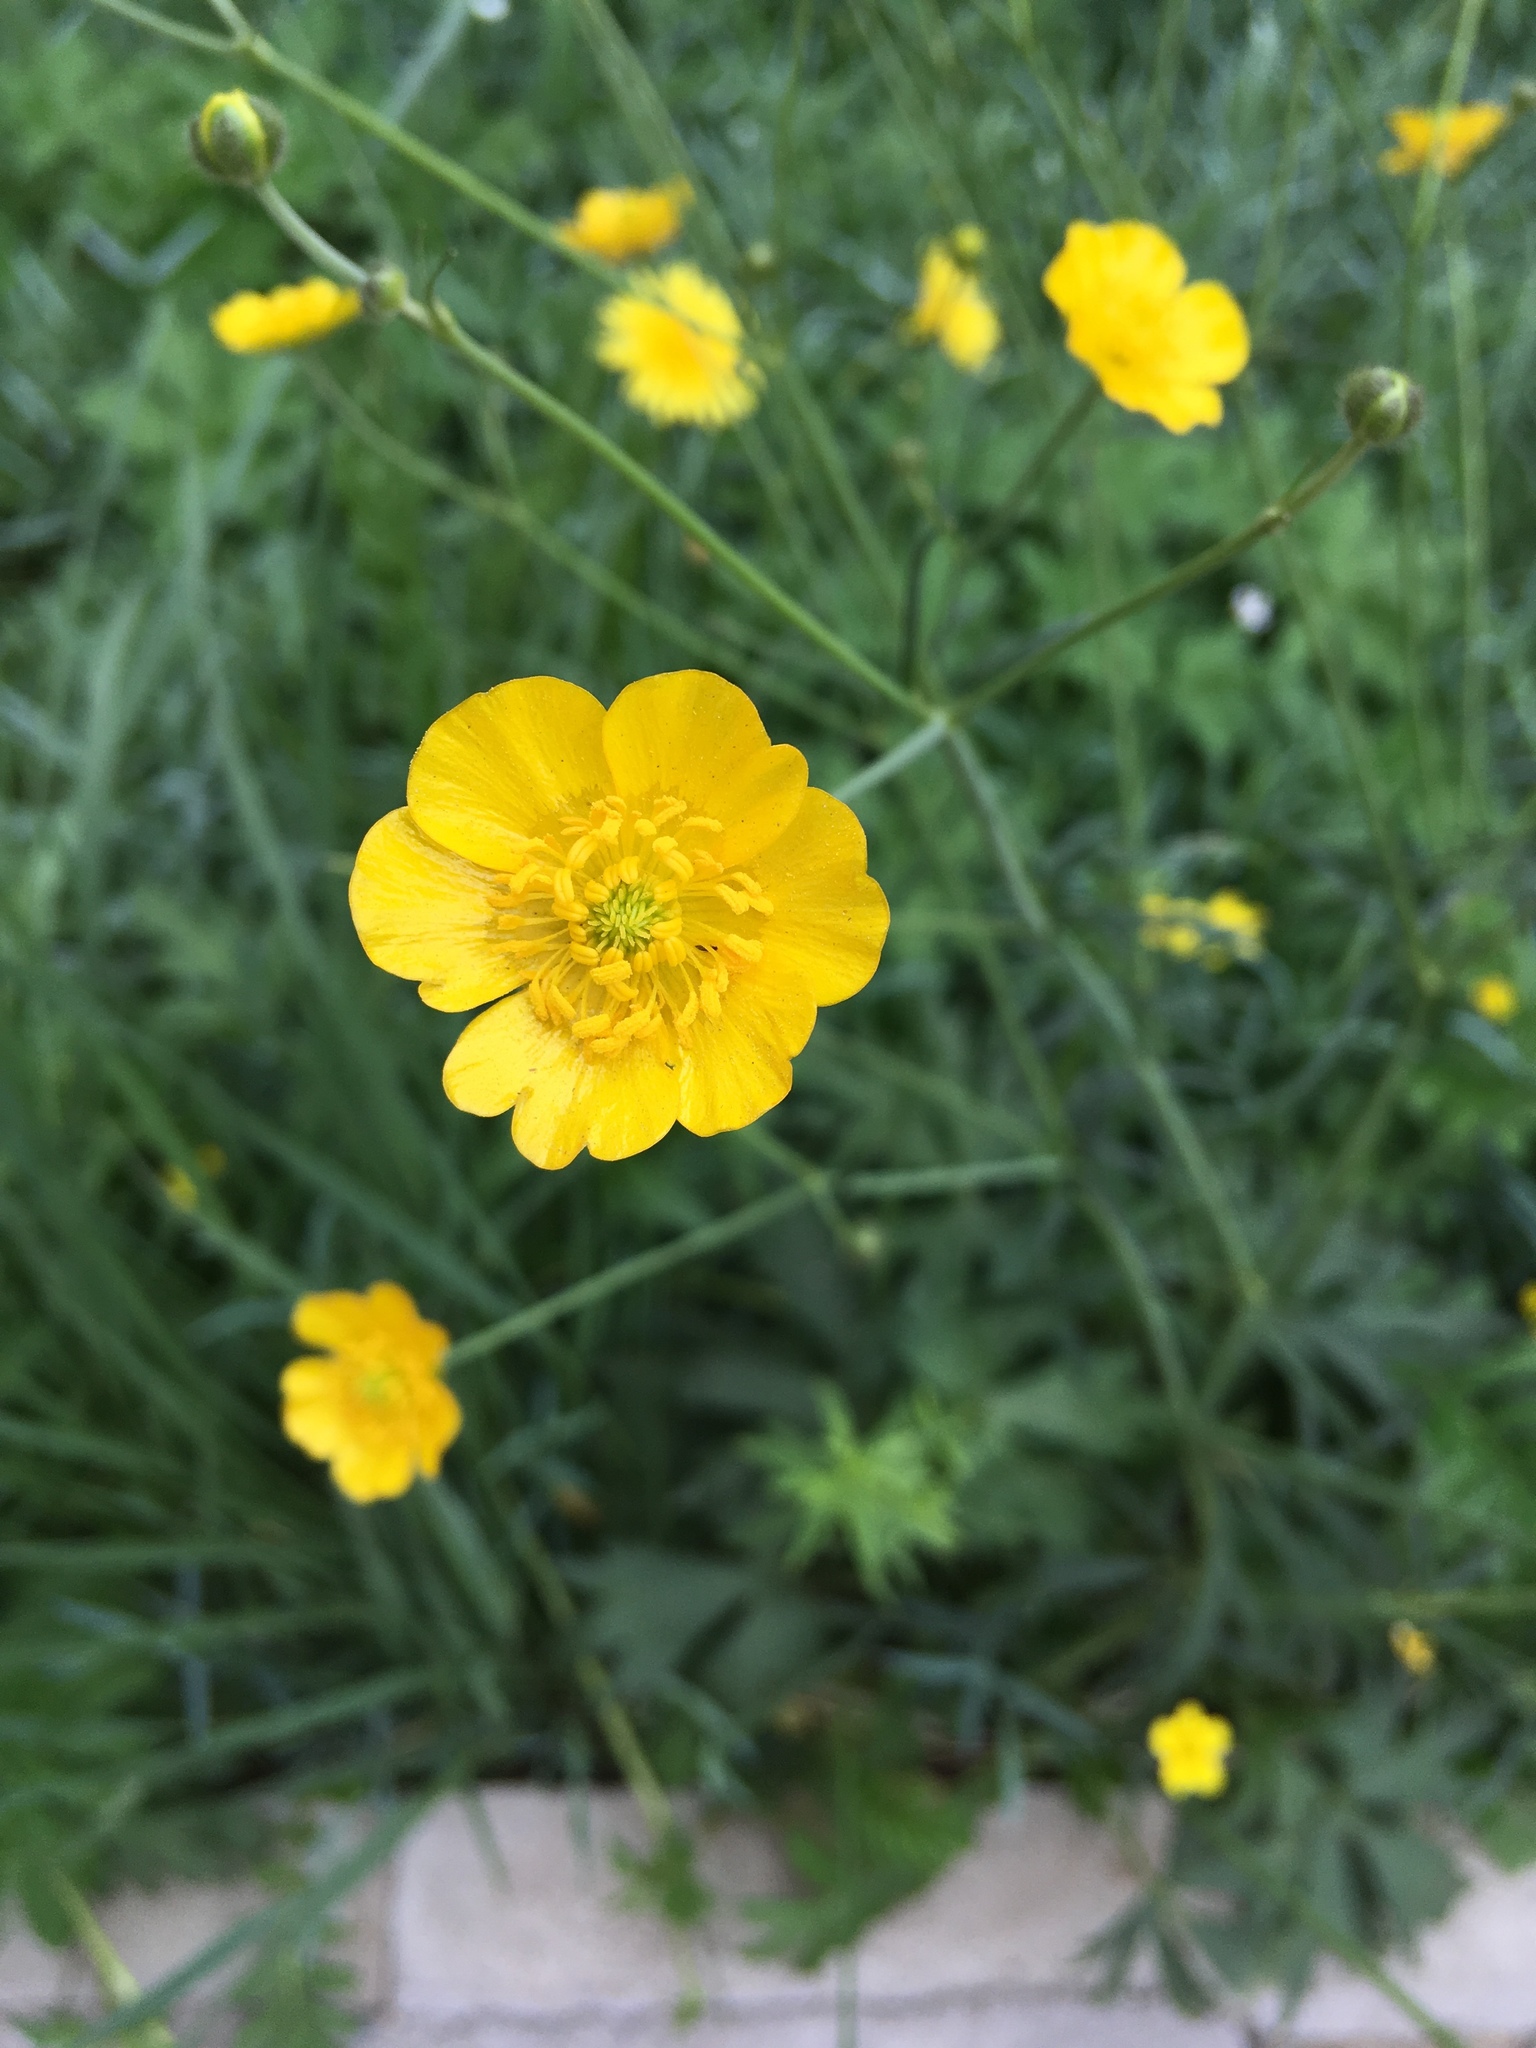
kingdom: Plantae
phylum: Tracheophyta
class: Magnoliopsida
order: Ranunculales
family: Ranunculaceae
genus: Ranunculus
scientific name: Ranunculus acris
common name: Meadow buttercup
